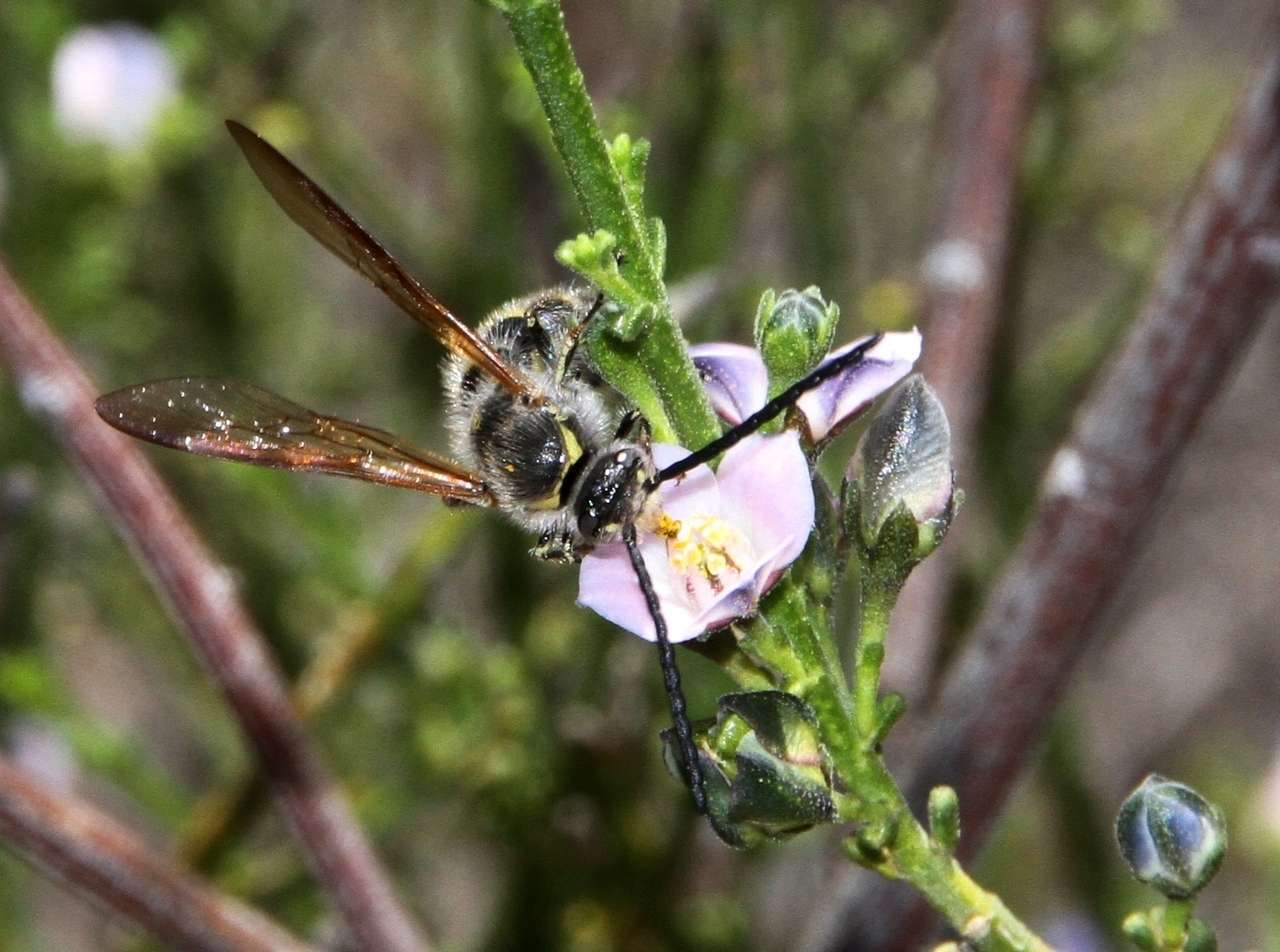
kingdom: Plantae
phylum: Tracheophyta
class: Magnoliopsida
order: Sapindales
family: Rutaceae
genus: Cyanothamnus
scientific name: Cyanothamnus coerulescens
